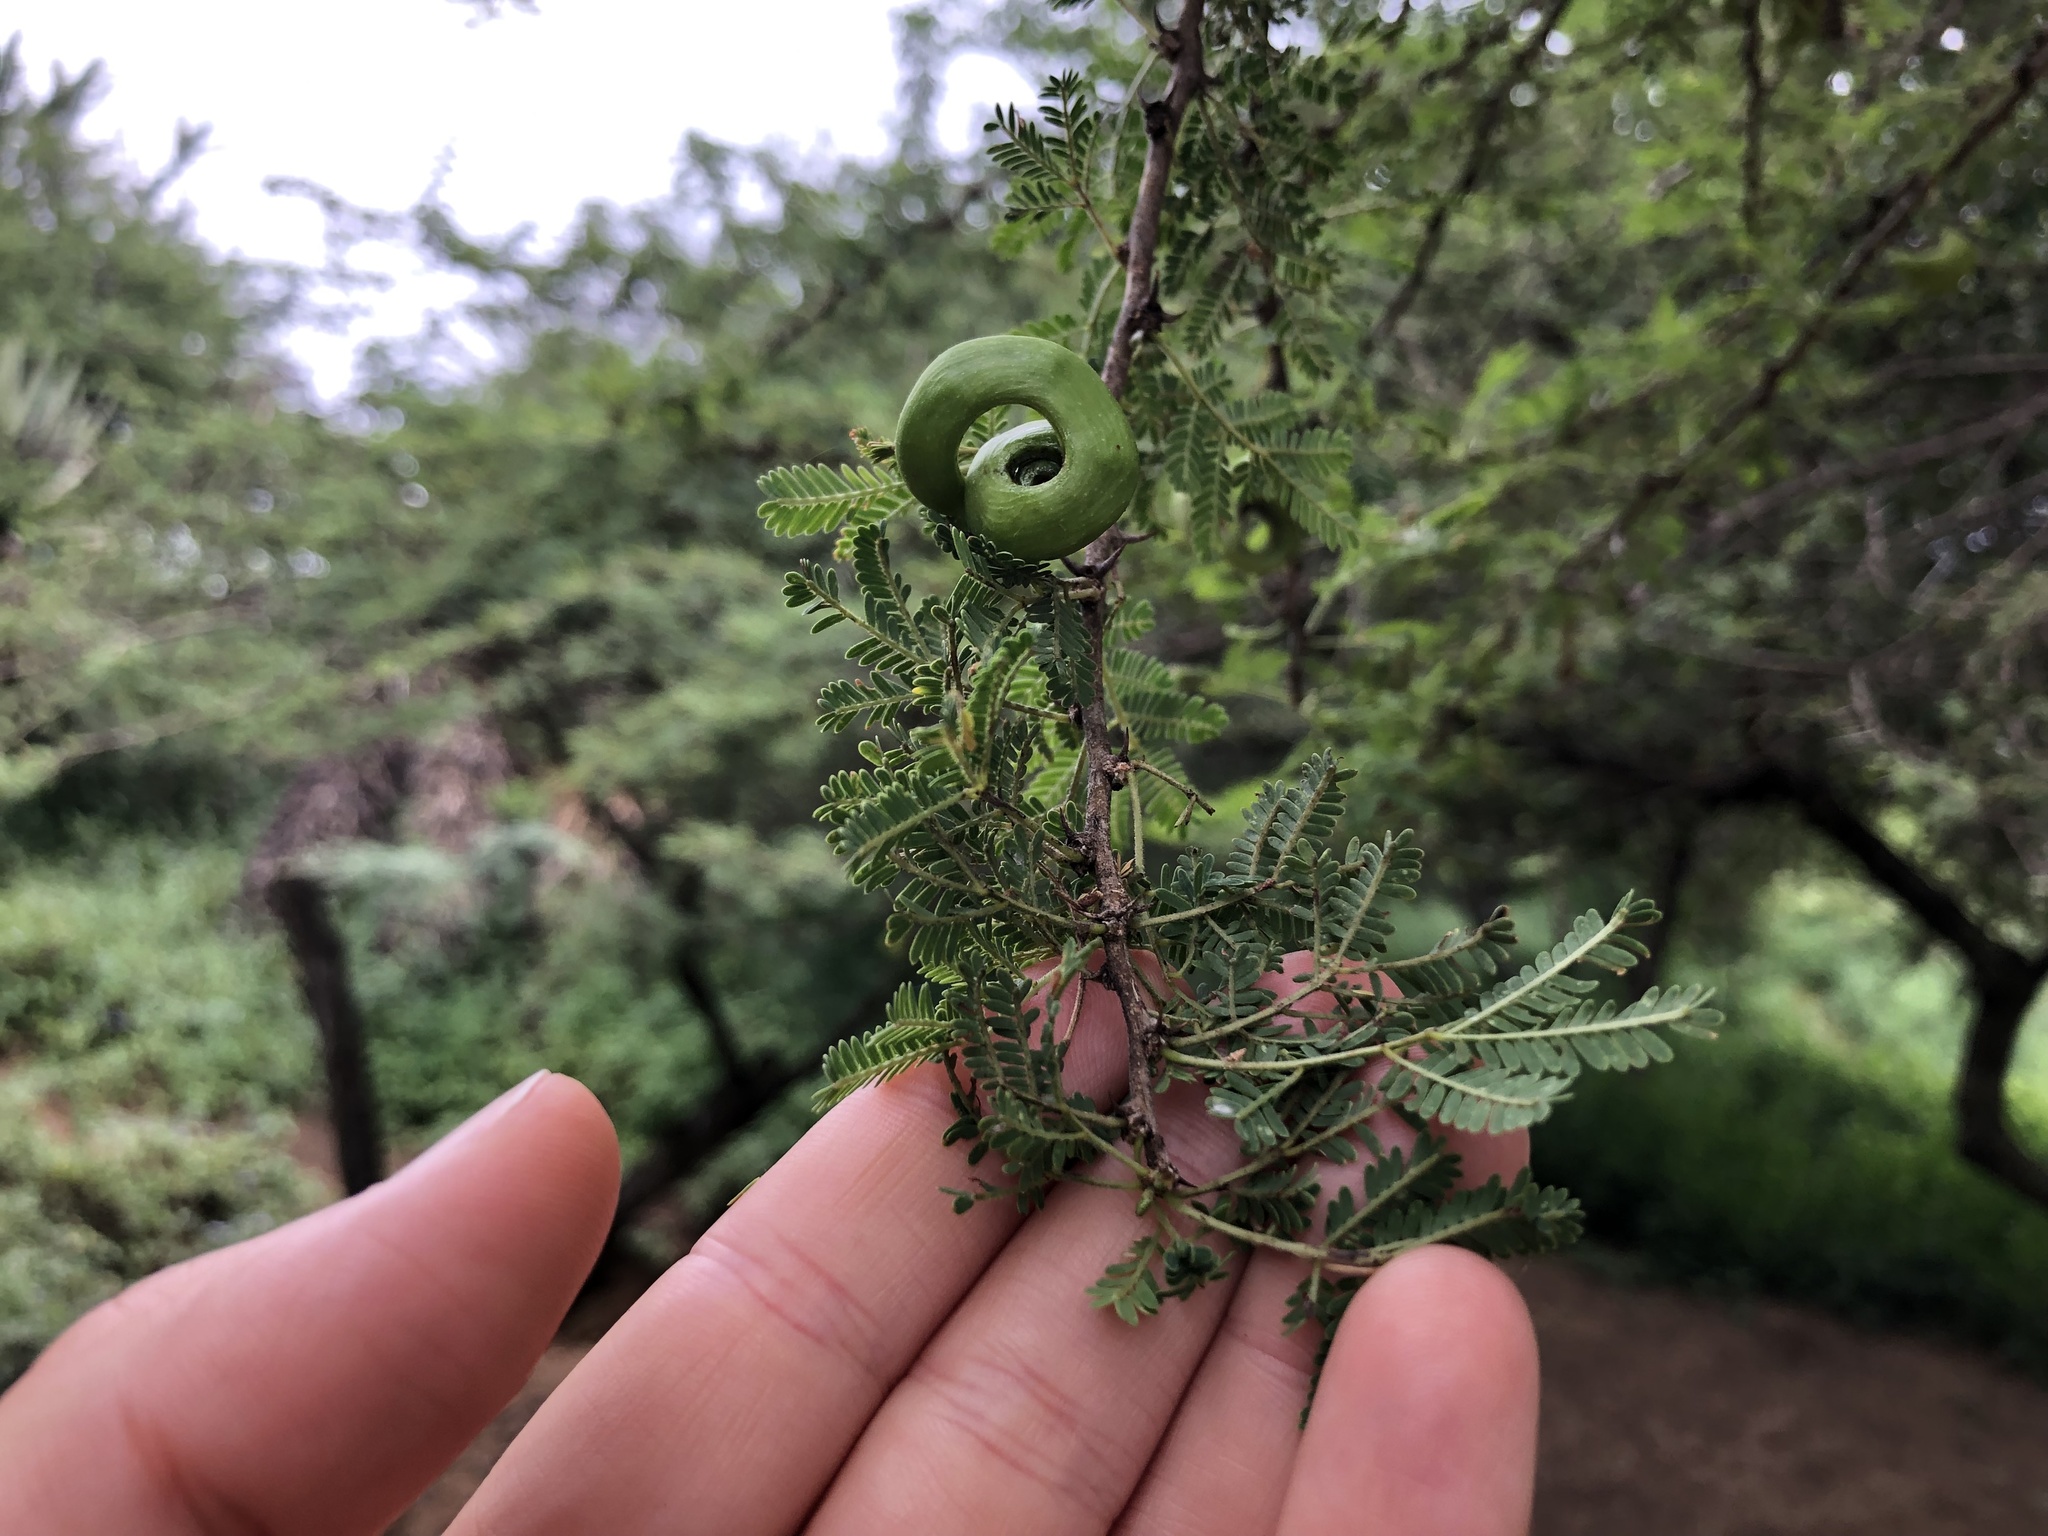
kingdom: Plantae
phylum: Tracheophyta
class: Magnoliopsida
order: Fabales
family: Fabaceae
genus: Vachellia
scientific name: Vachellia tortilis
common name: Umbrella thorn acacia
